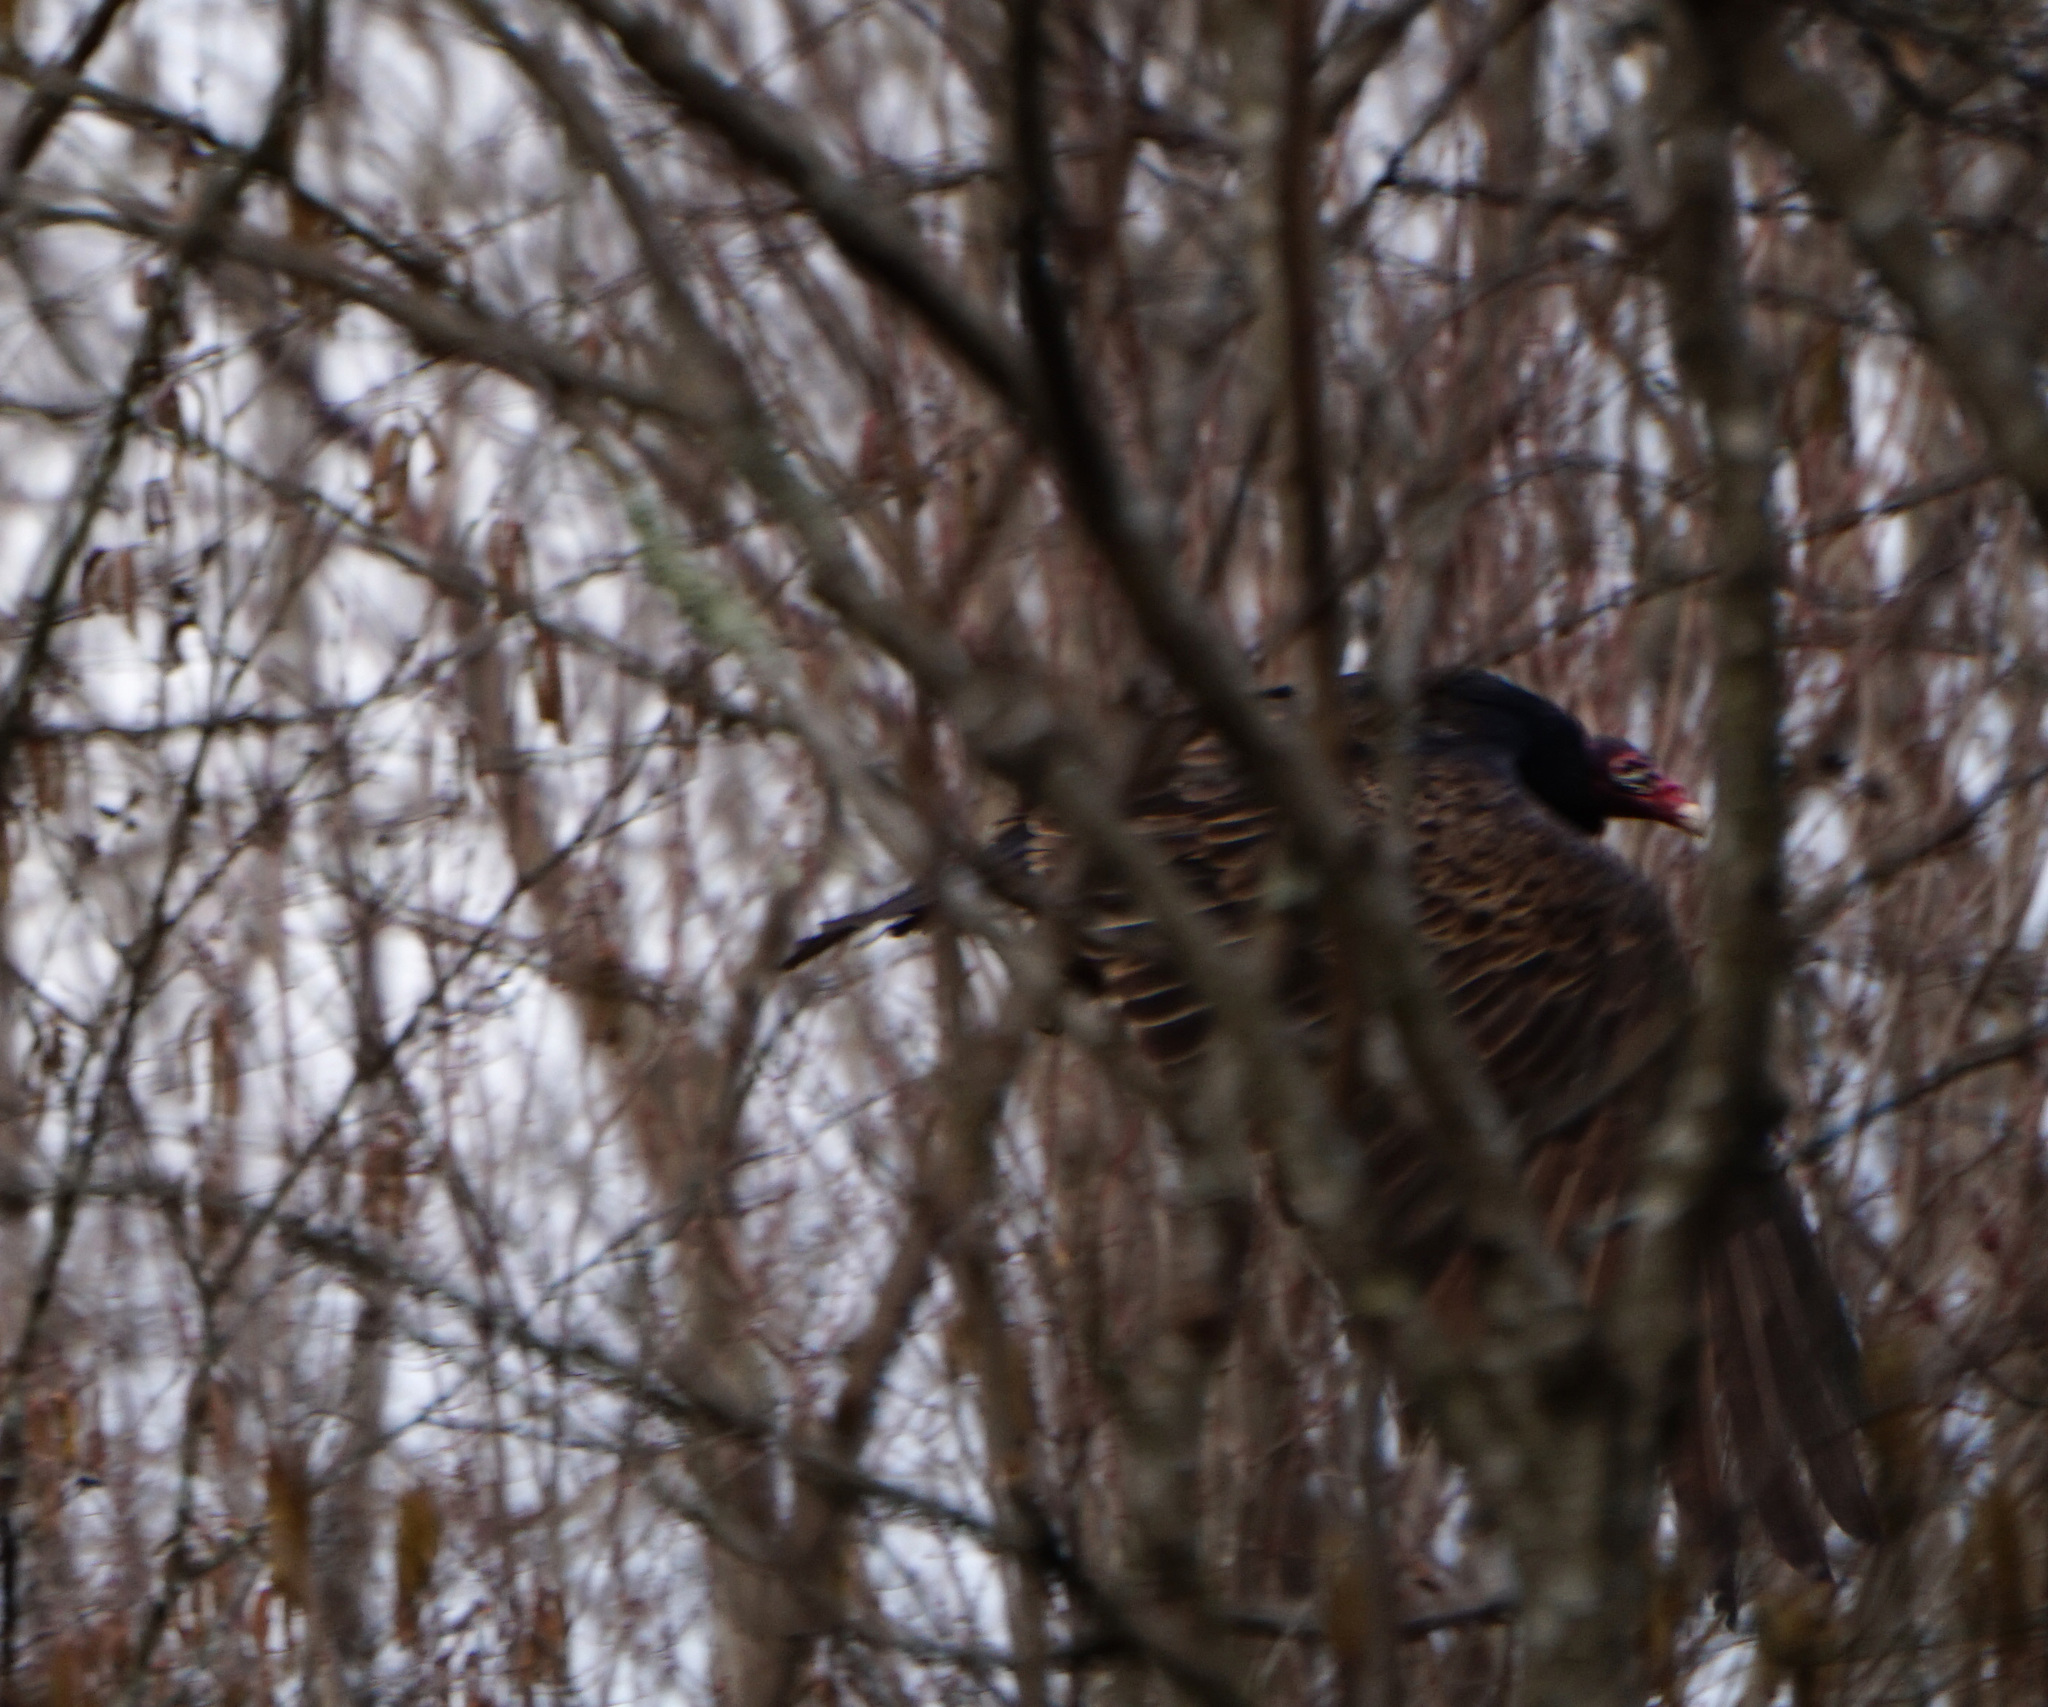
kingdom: Animalia
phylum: Chordata
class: Aves
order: Accipitriformes
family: Cathartidae
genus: Cathartes
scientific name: Cathartes aura
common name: Turkey vulture
